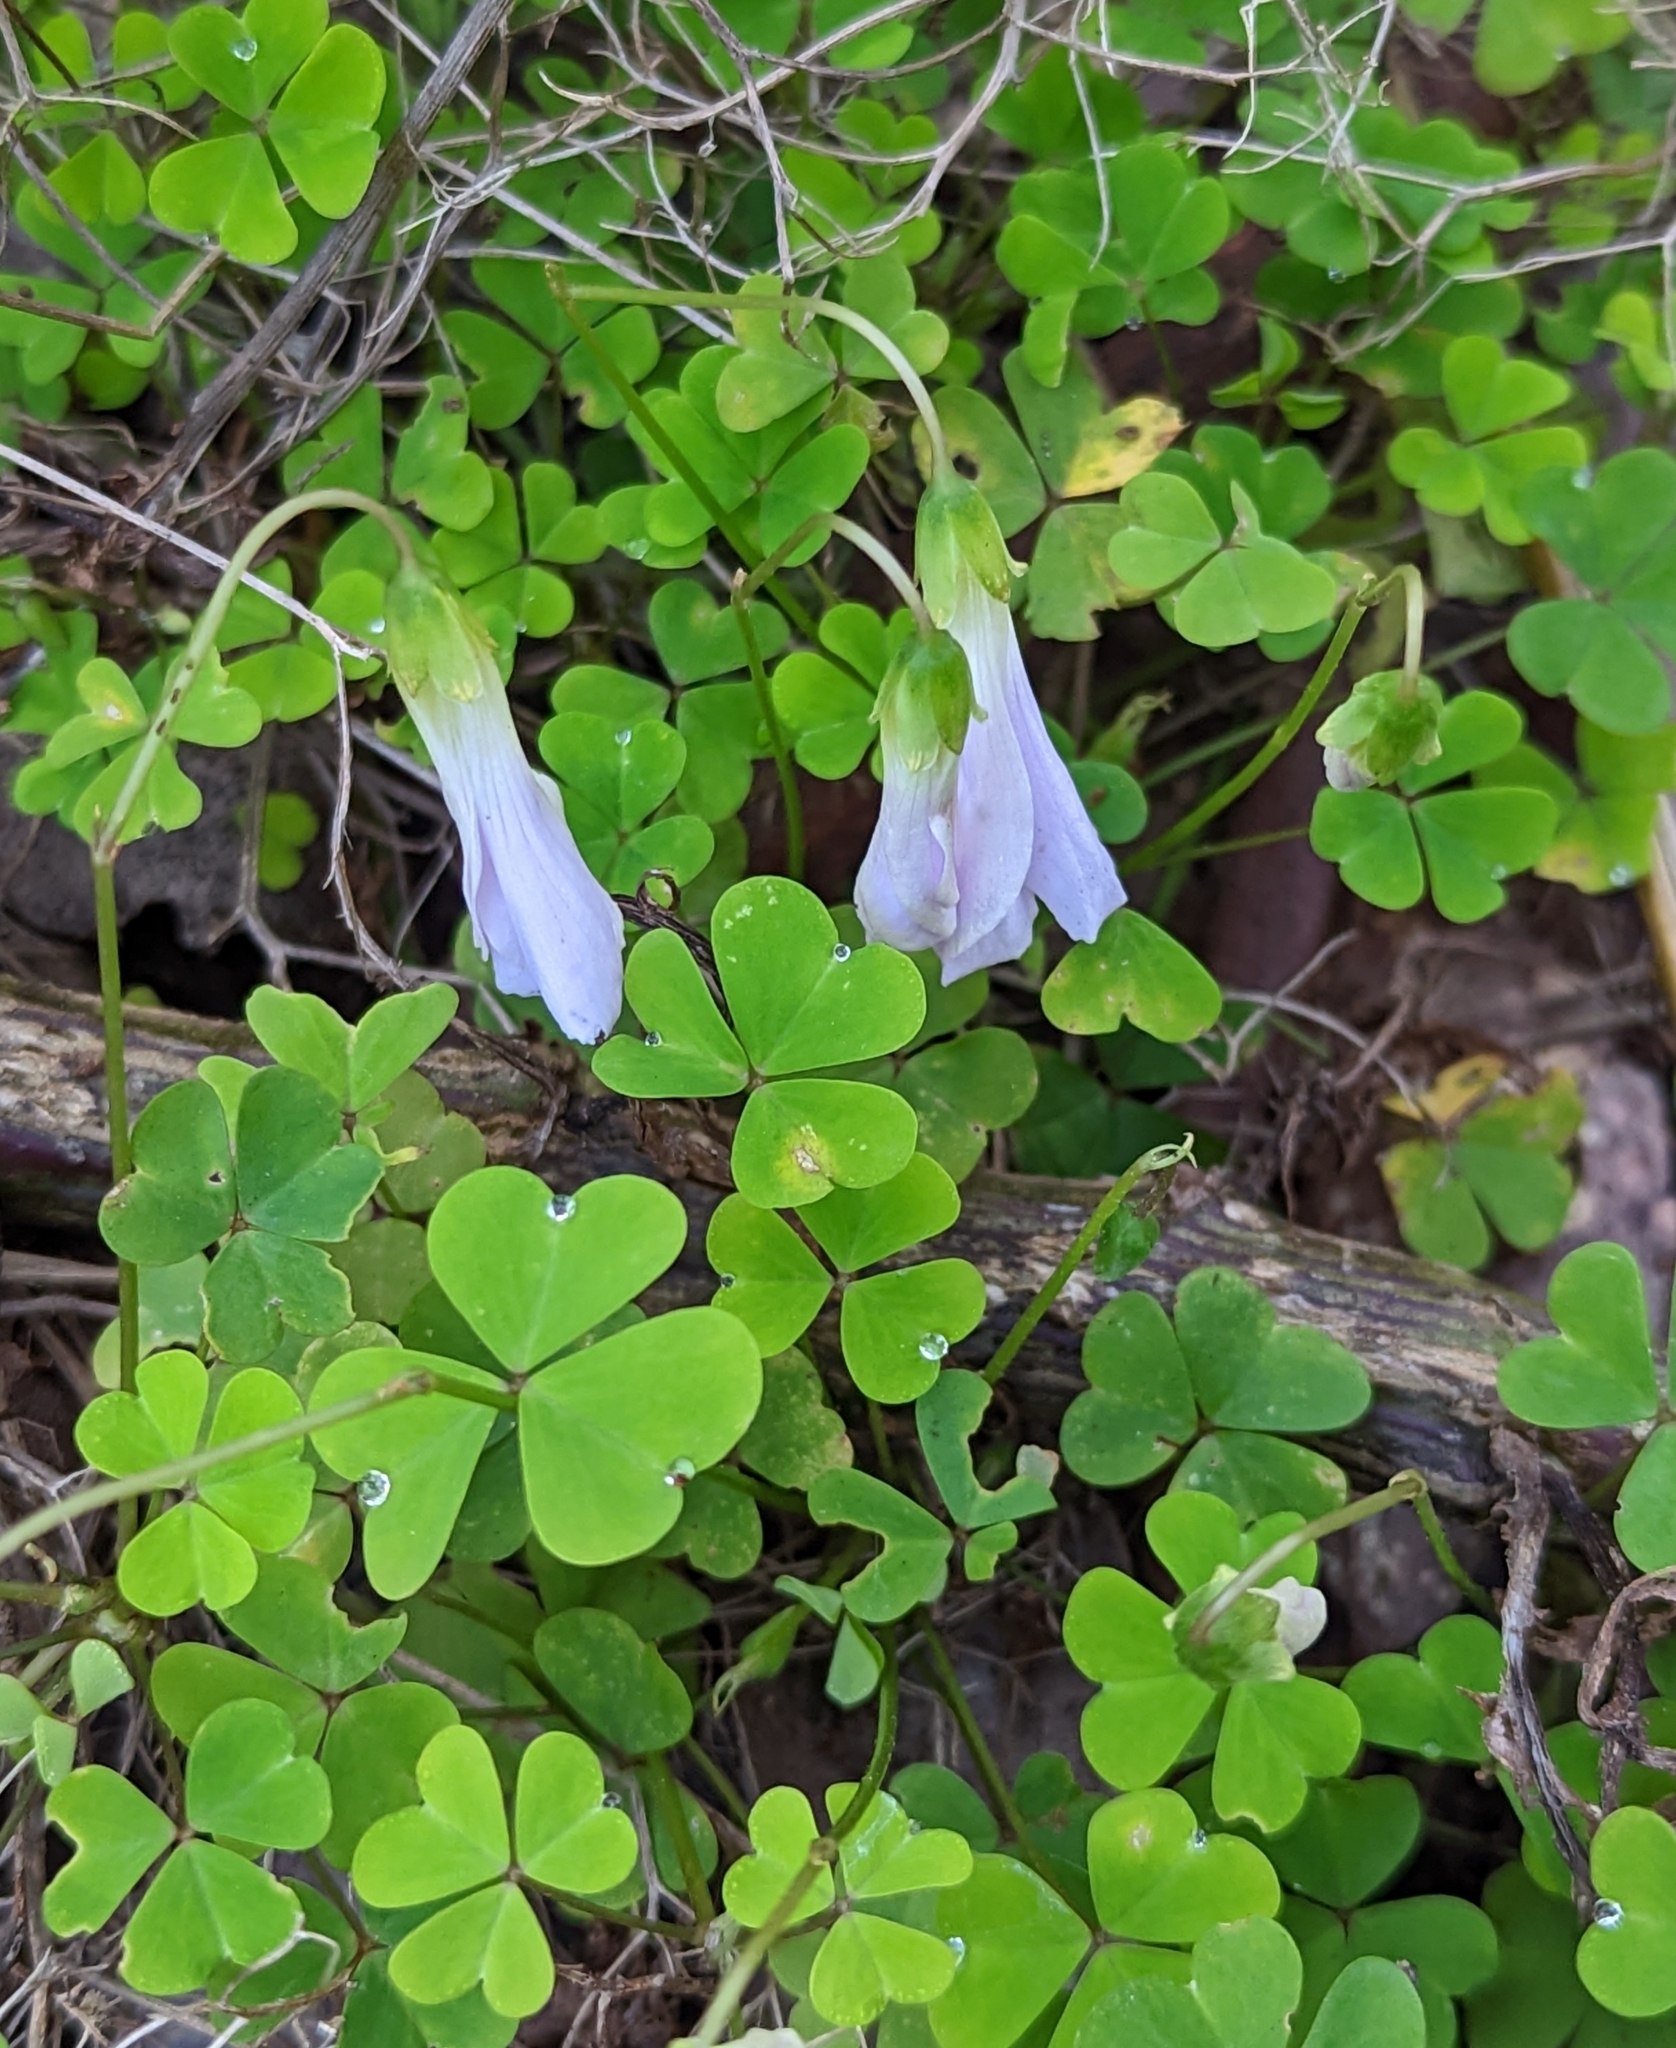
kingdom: Plantae
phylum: Tracheophyta
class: Magnoliopsida
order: Oxalidales
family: Oxalidaceae
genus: Oxalis
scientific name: Oxalis incarnata
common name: Pale pink-sorrel
